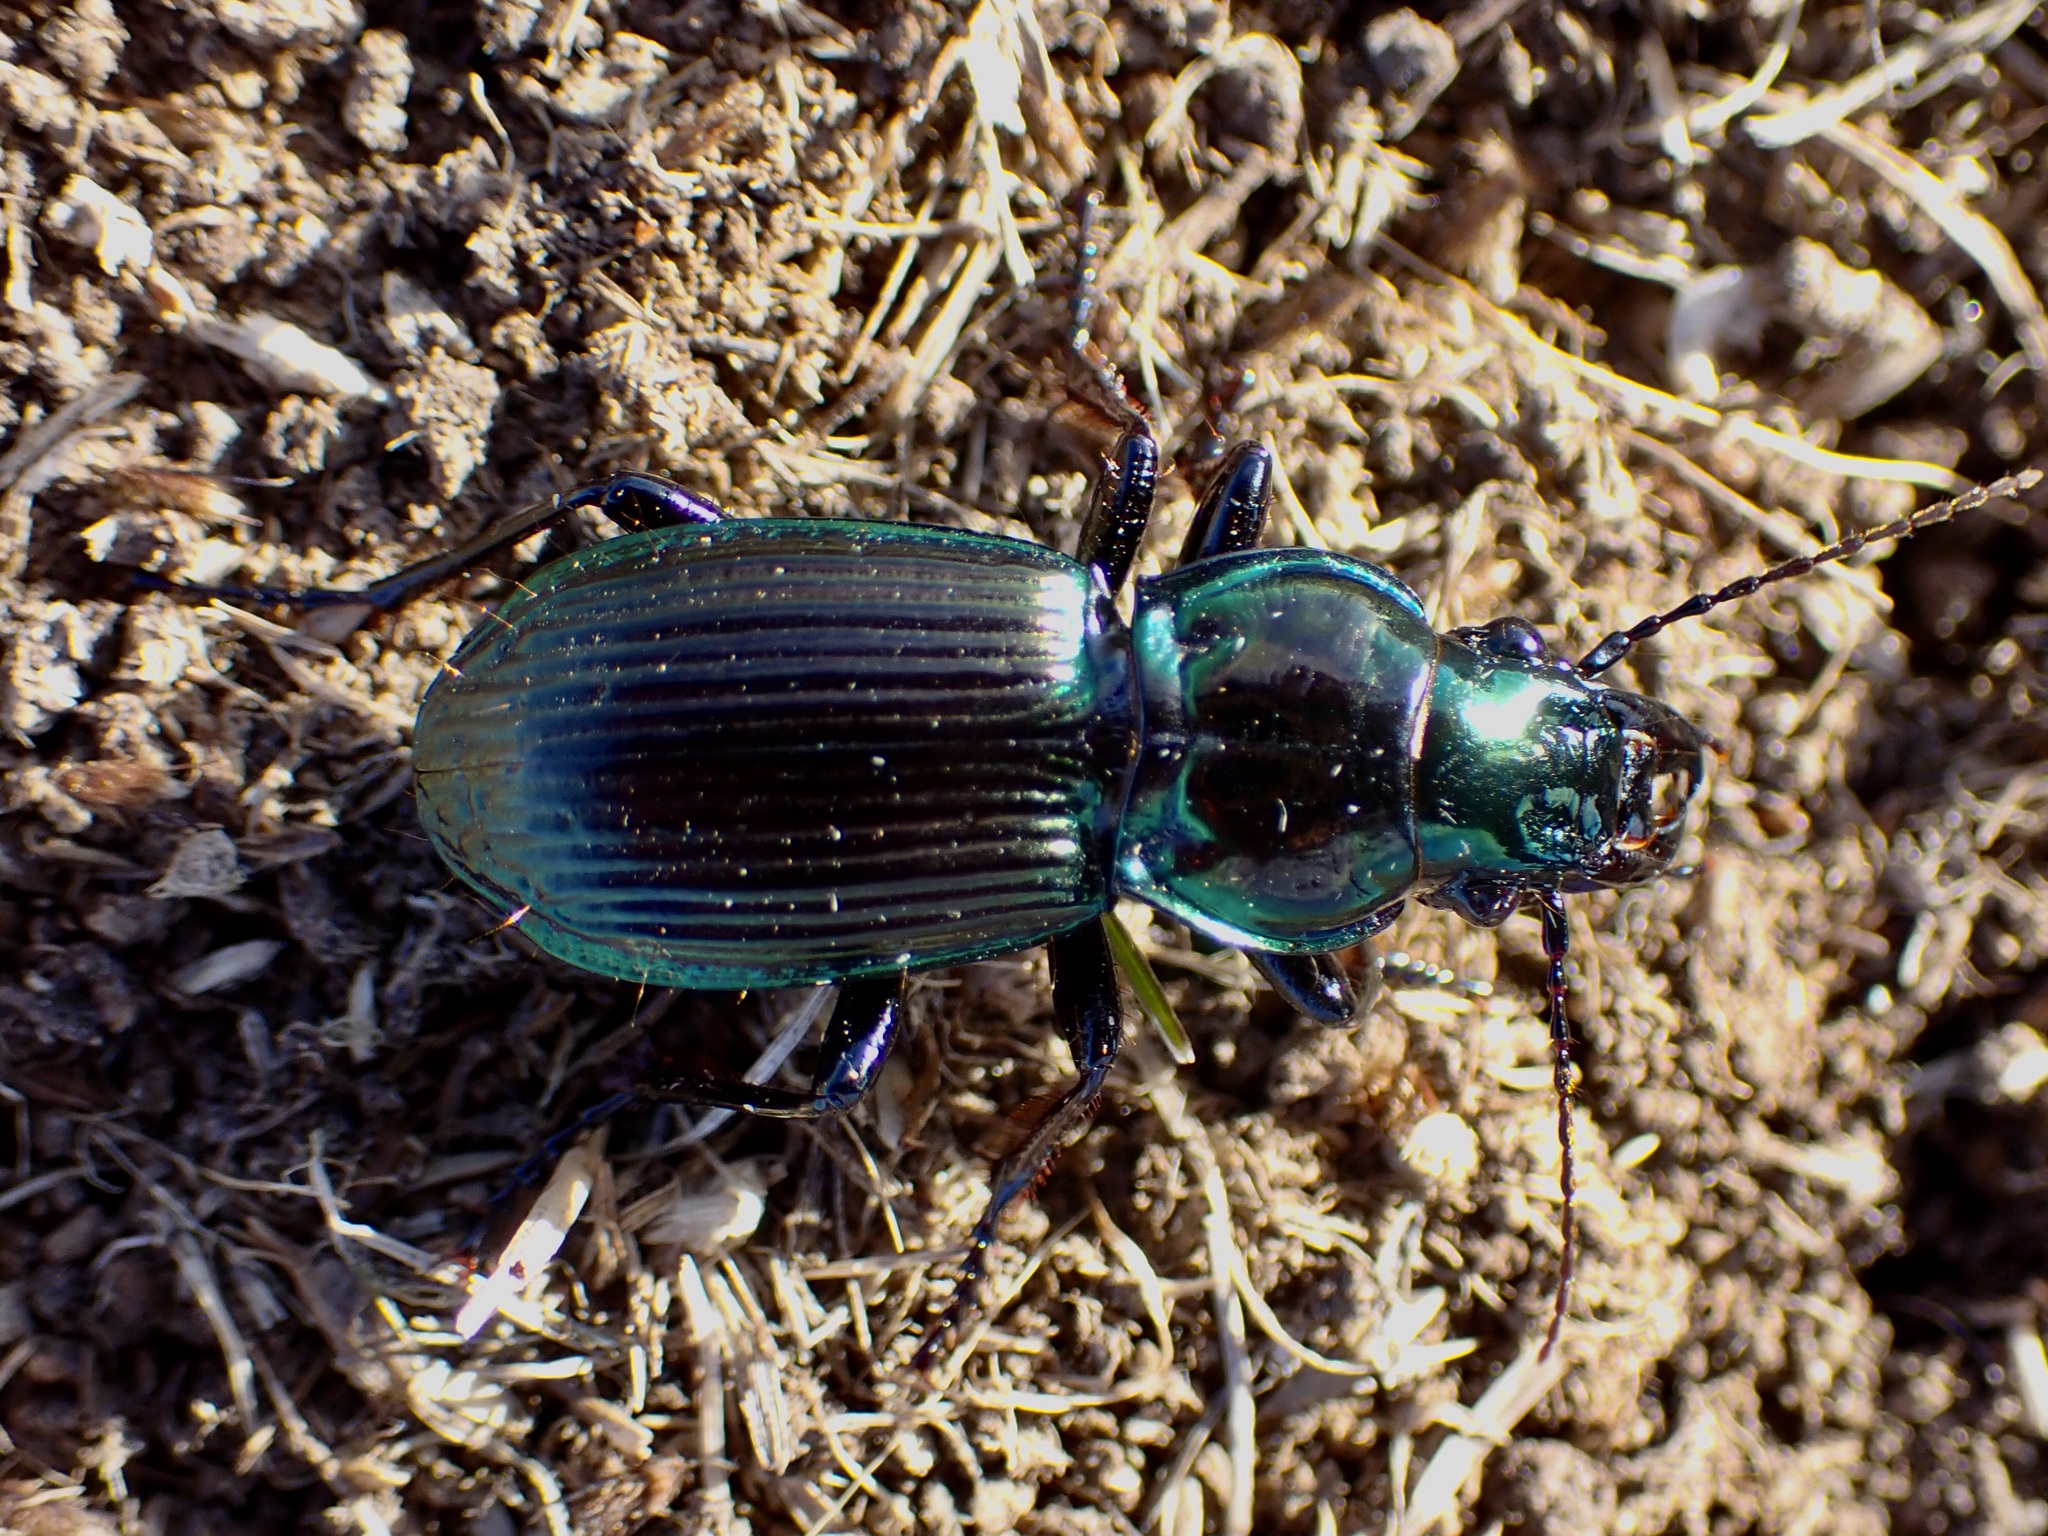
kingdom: Animalia
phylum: Arthropoda
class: Insecta
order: Coleoptera
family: Carabidae
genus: Megadromus
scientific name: Megadromus antarcticus
